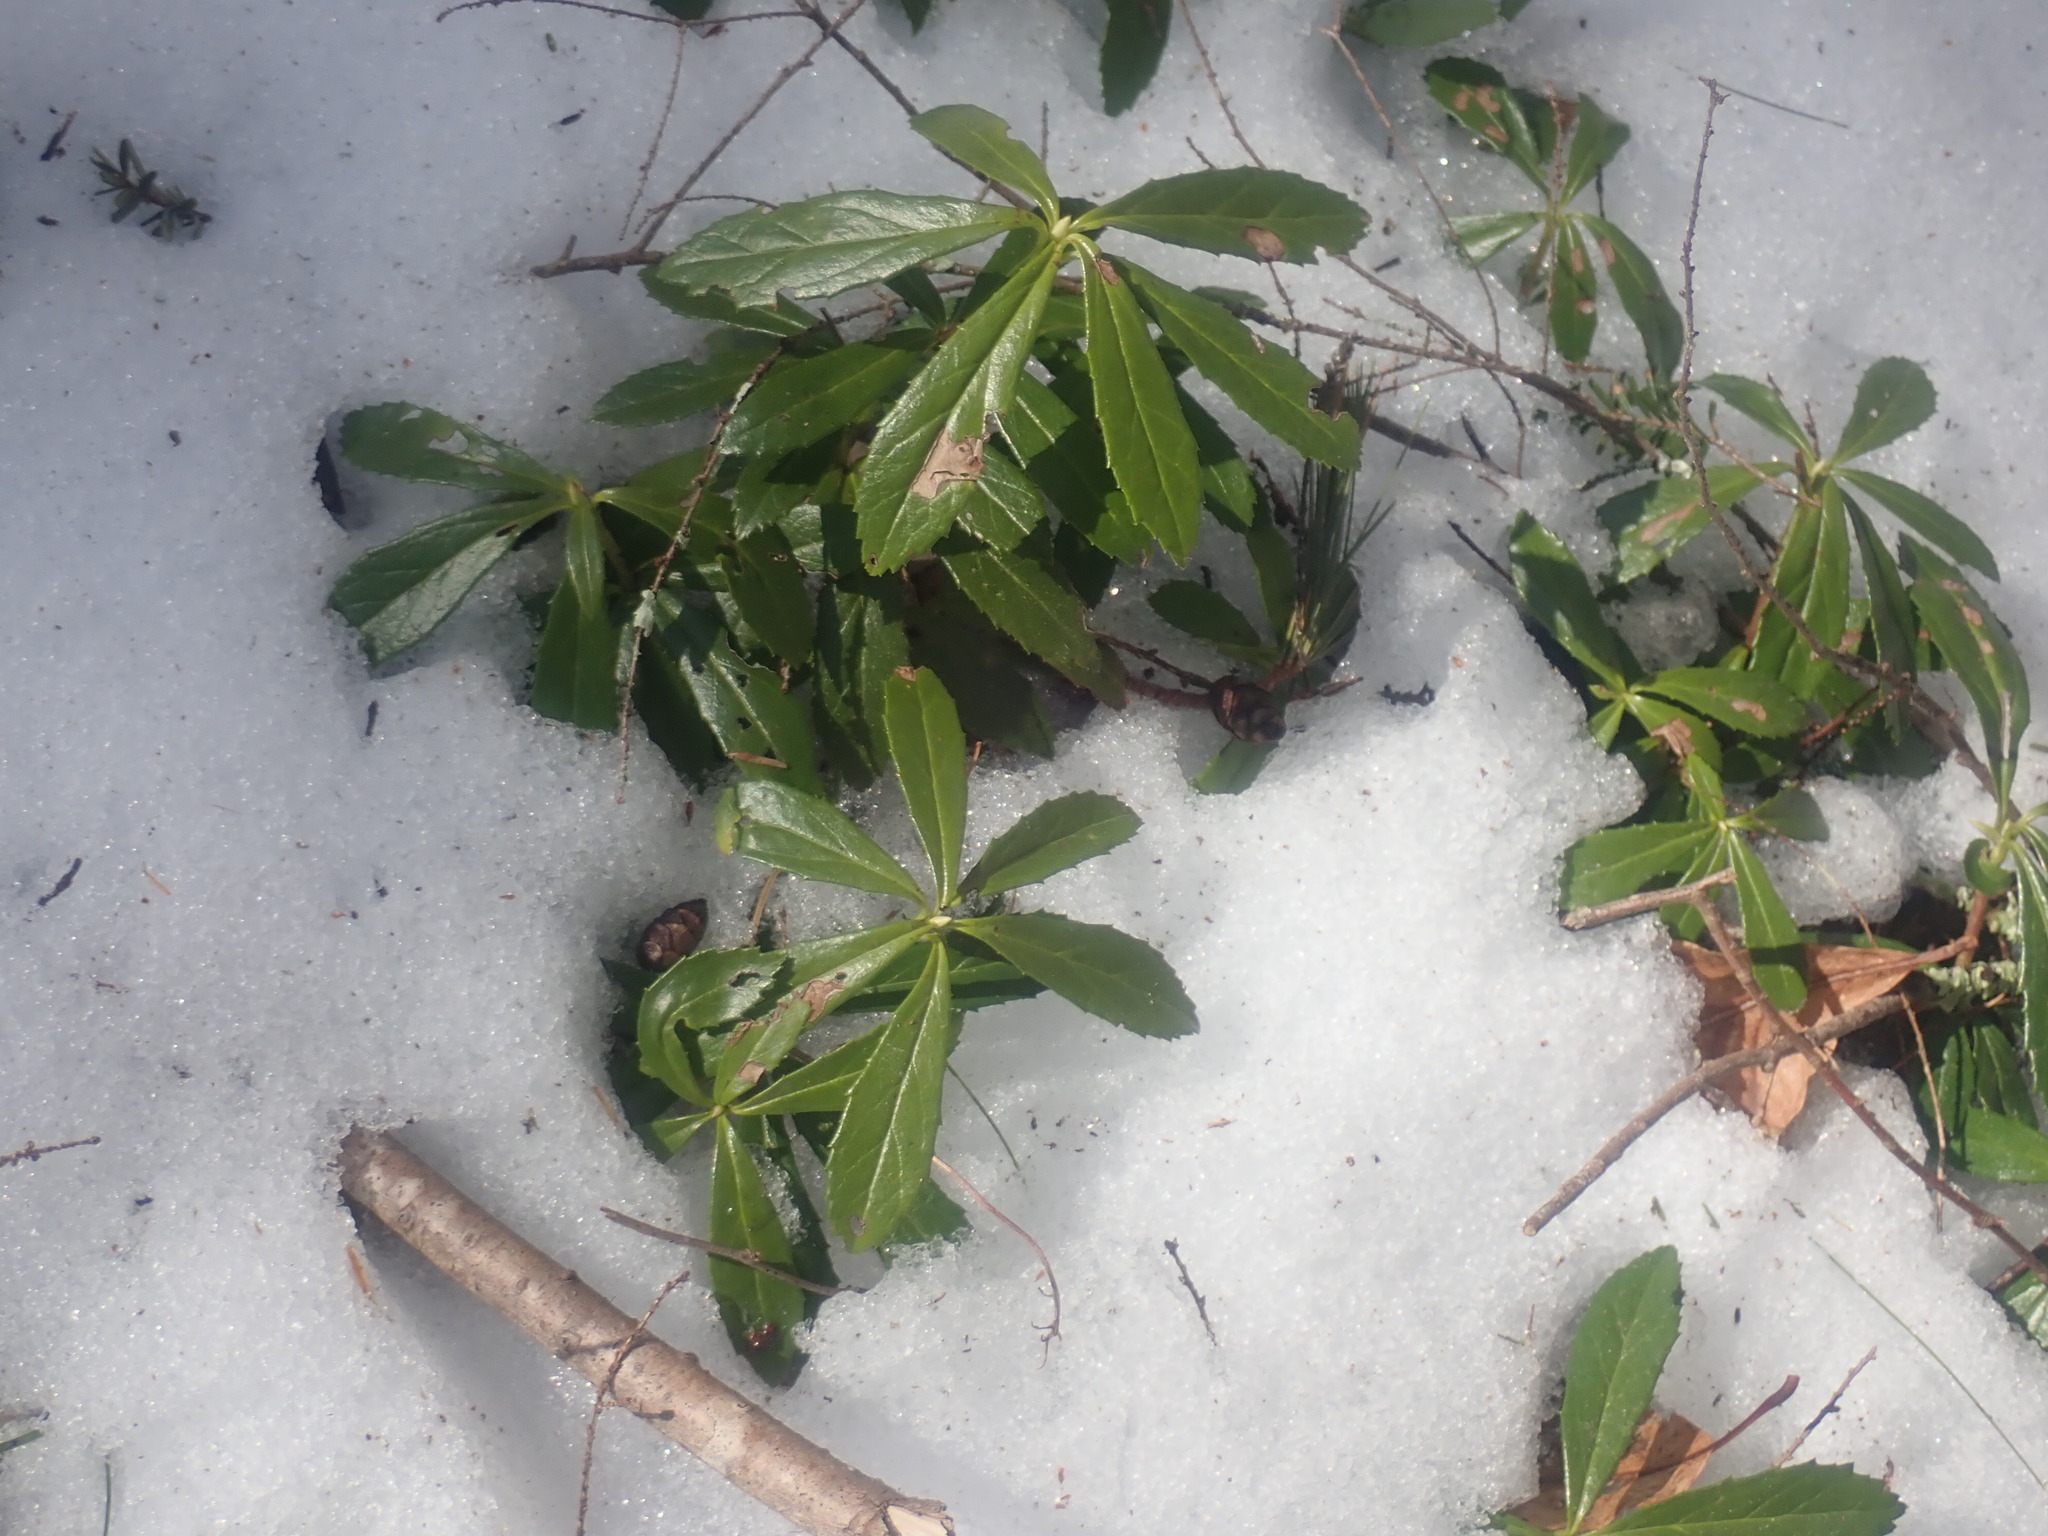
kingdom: Plantae
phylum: Tracheophyta
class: Magnoliopsida
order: Ericales
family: Ericaceae
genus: Chimaphila
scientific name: Chimaphila umbellata
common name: Pipsissewa
